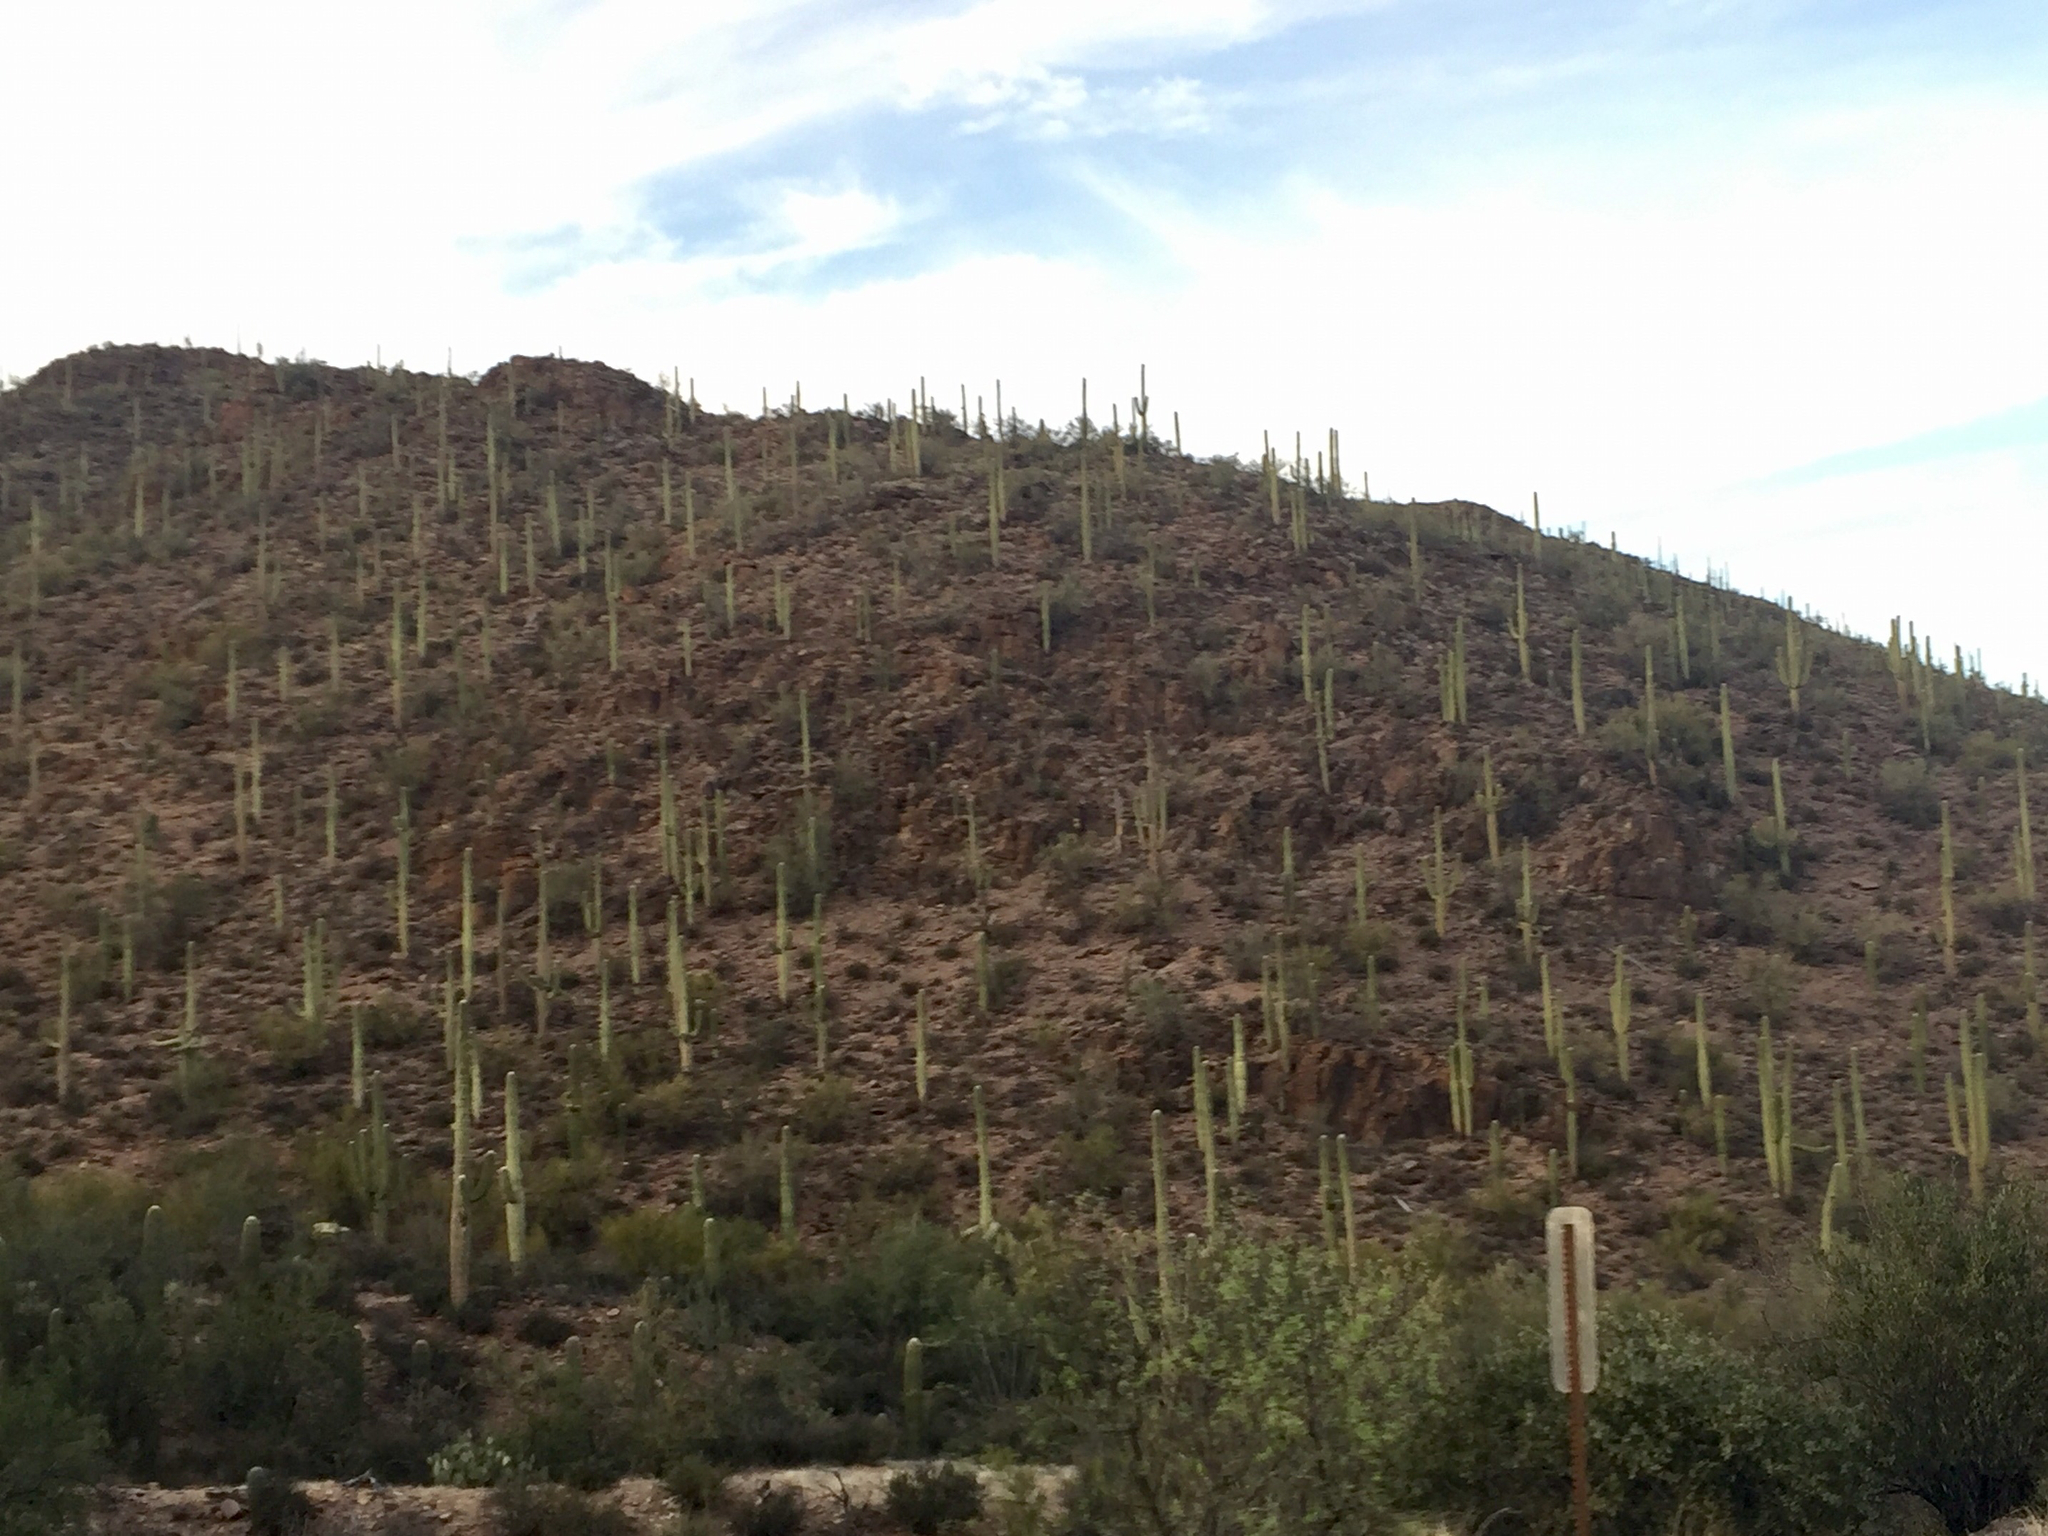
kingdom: Plantae
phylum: Tracheophyta
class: Magnoliopsida
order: Caryophyllales
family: Cactaceae
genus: Carnegiea
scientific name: Carnegiea gigantea
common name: Saguaro
